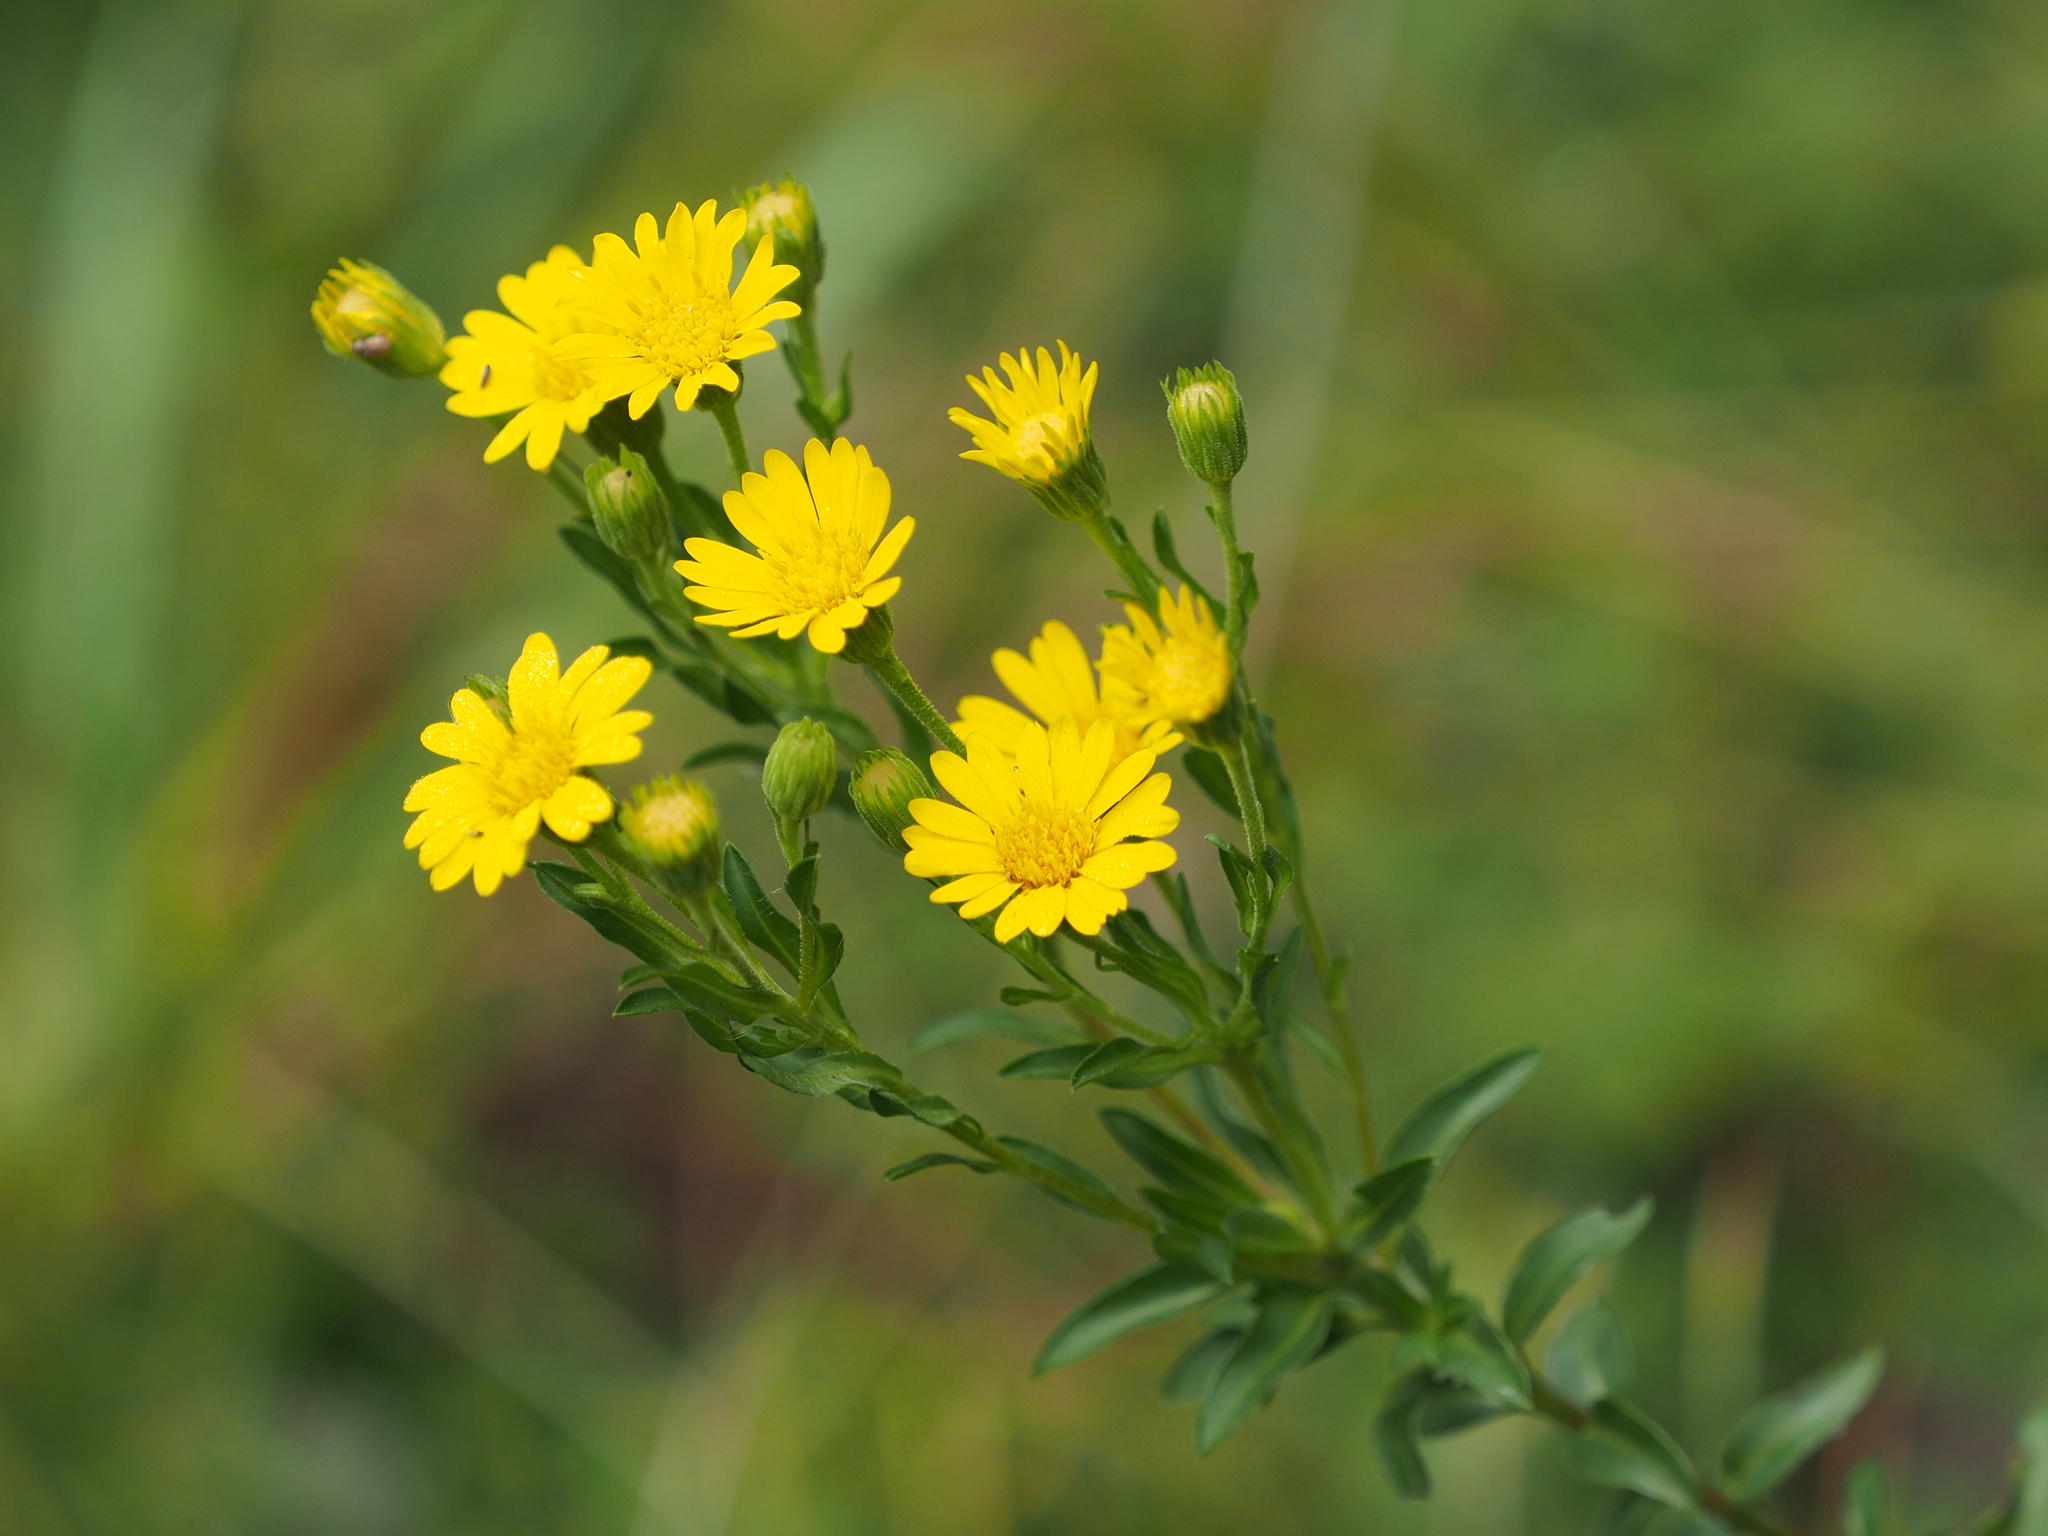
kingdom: Plantae
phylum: Tracheophyta
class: Magnoliopsida
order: Asterales
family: Asteraceae
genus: Chrysopsis
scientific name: Chrysopsis mariana
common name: Maryland golden-aster
